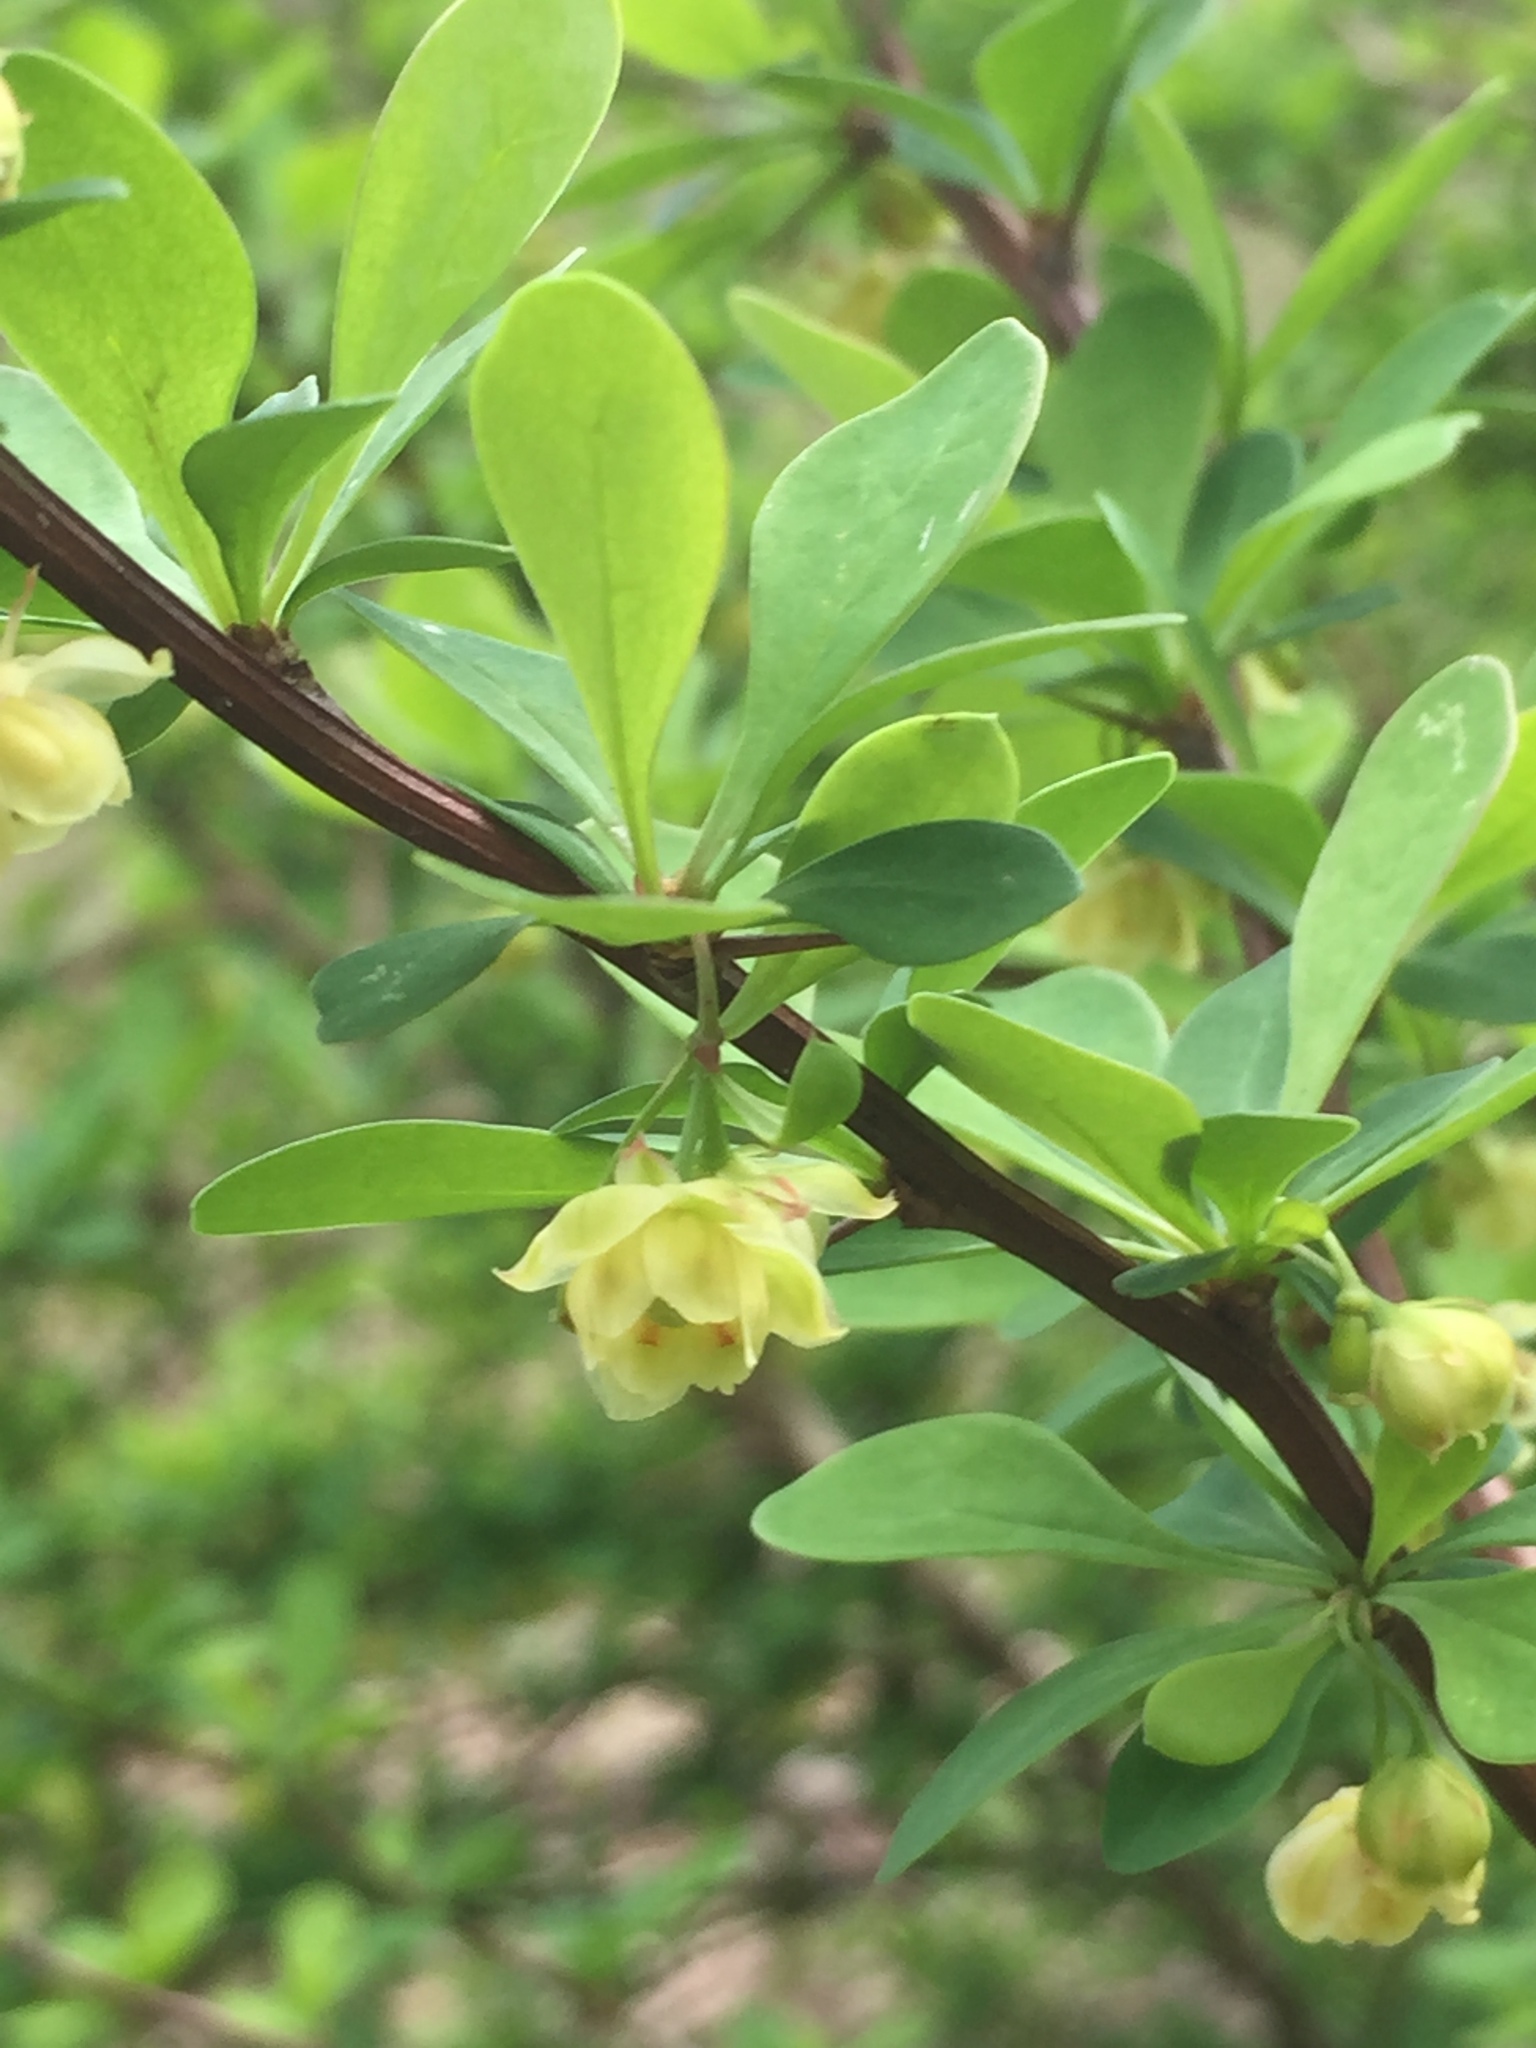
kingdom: Plantae
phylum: Tracheophyta
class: Magnoliopsida
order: Ranunculales
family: Berberidaceae
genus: Berberis
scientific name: Berberis thunbergii
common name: Japanese barberry
